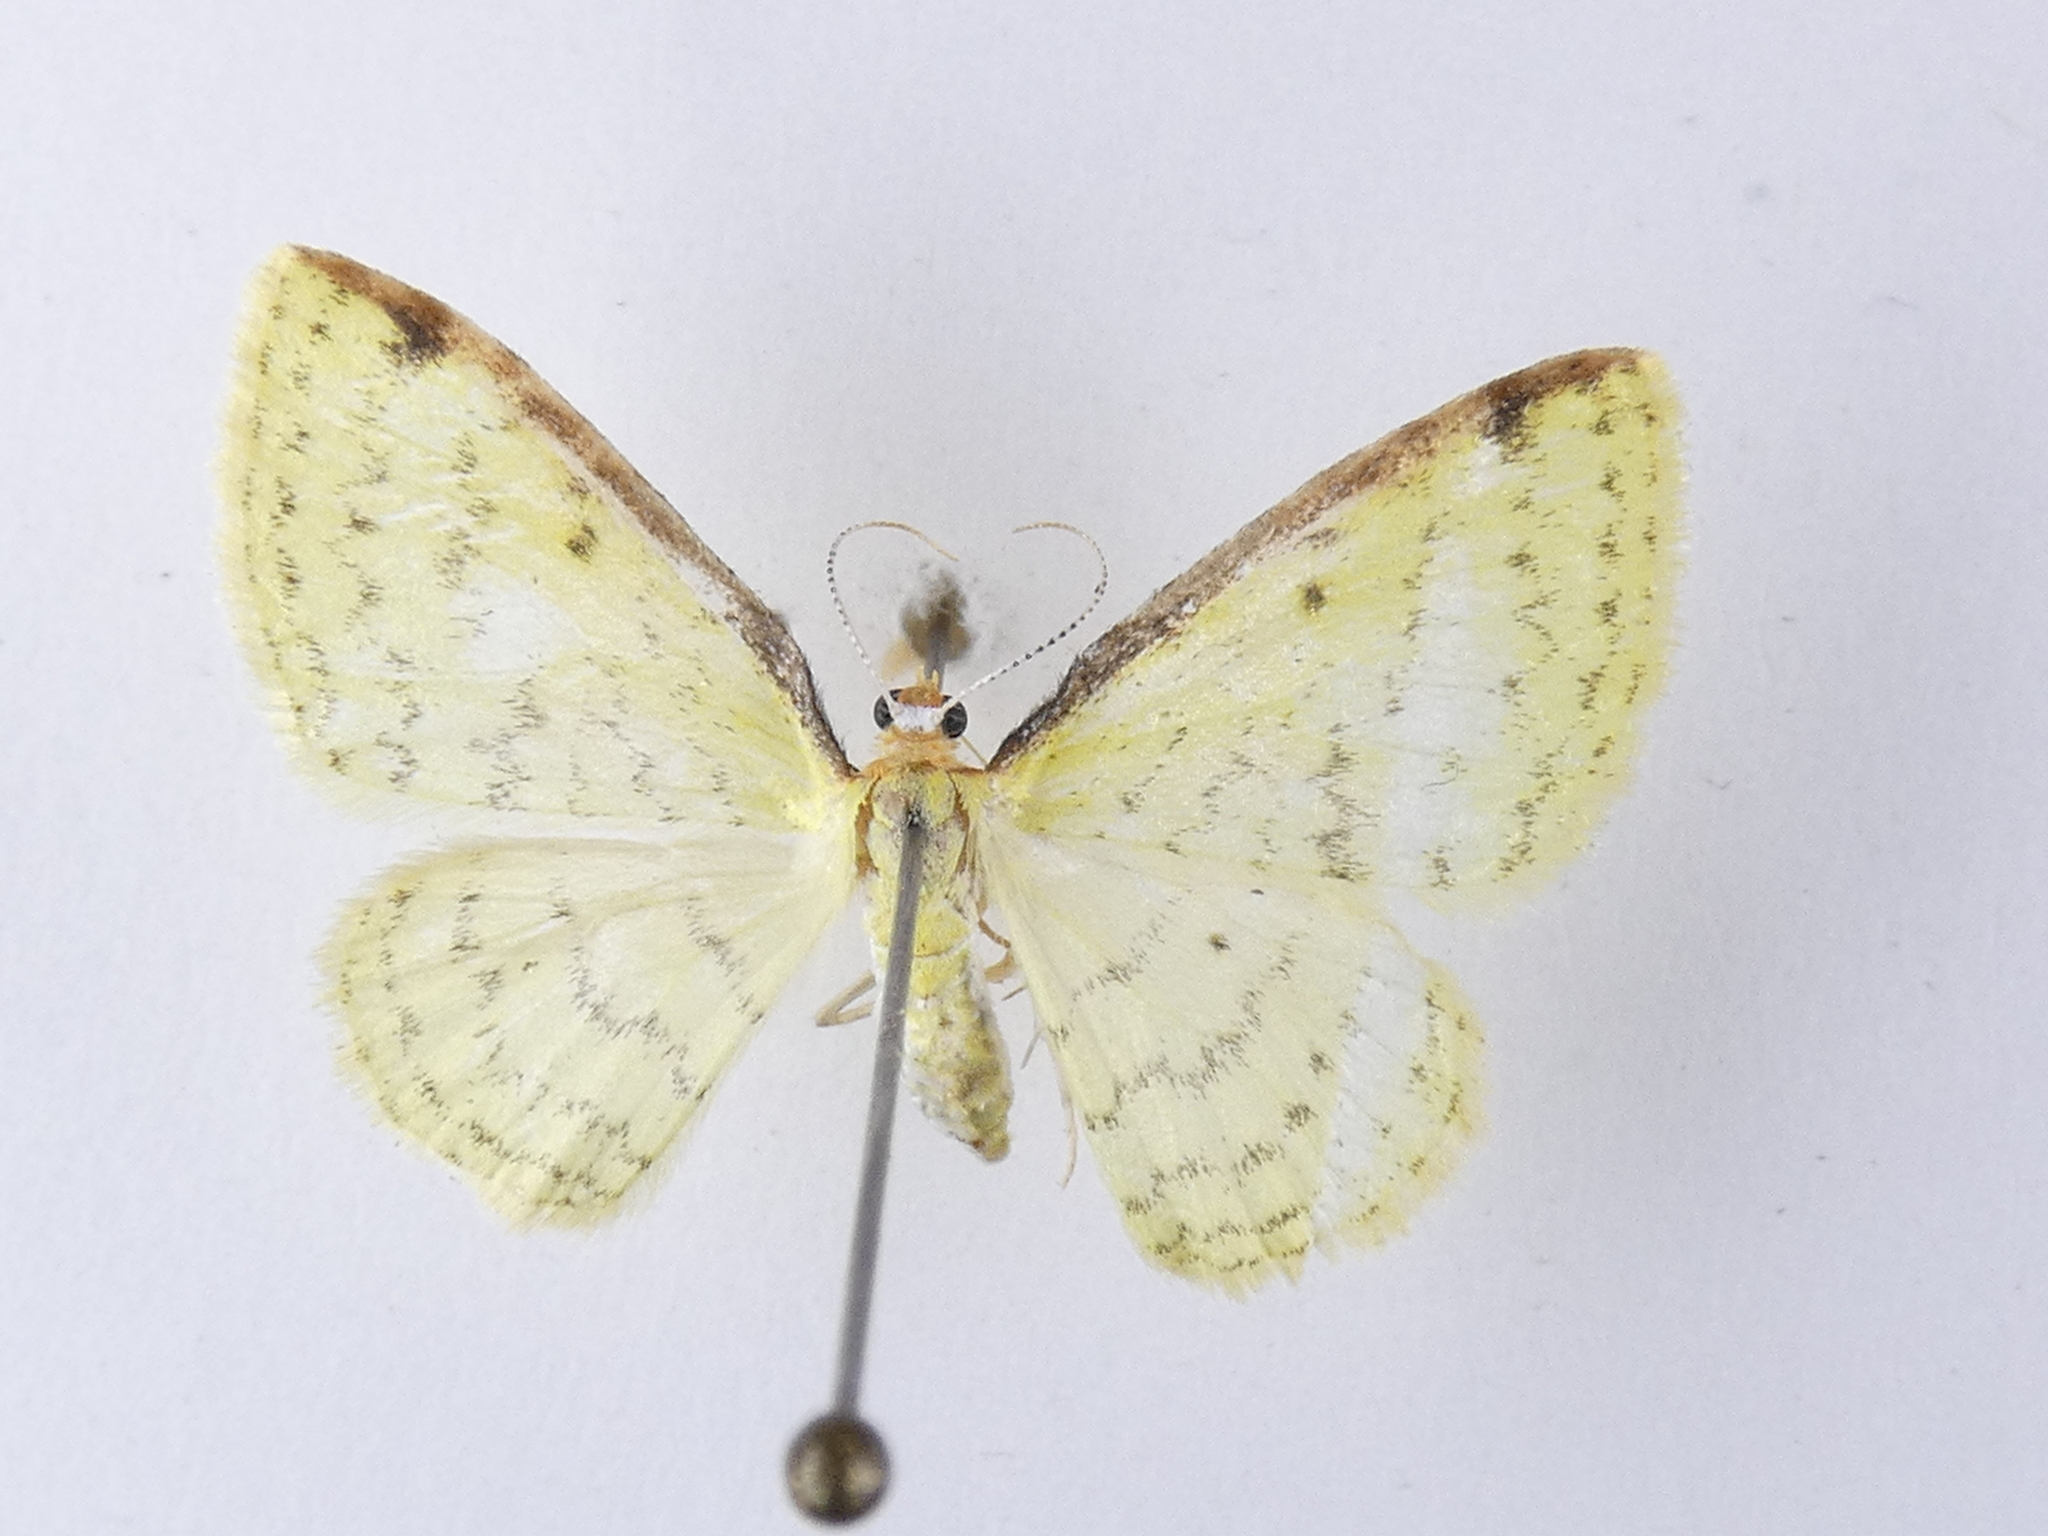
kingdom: Animalia
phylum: Arthropoda
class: Insecta
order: Lepidoptera
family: Geometridae
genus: Epiphryne
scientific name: Epiphryne undosata
